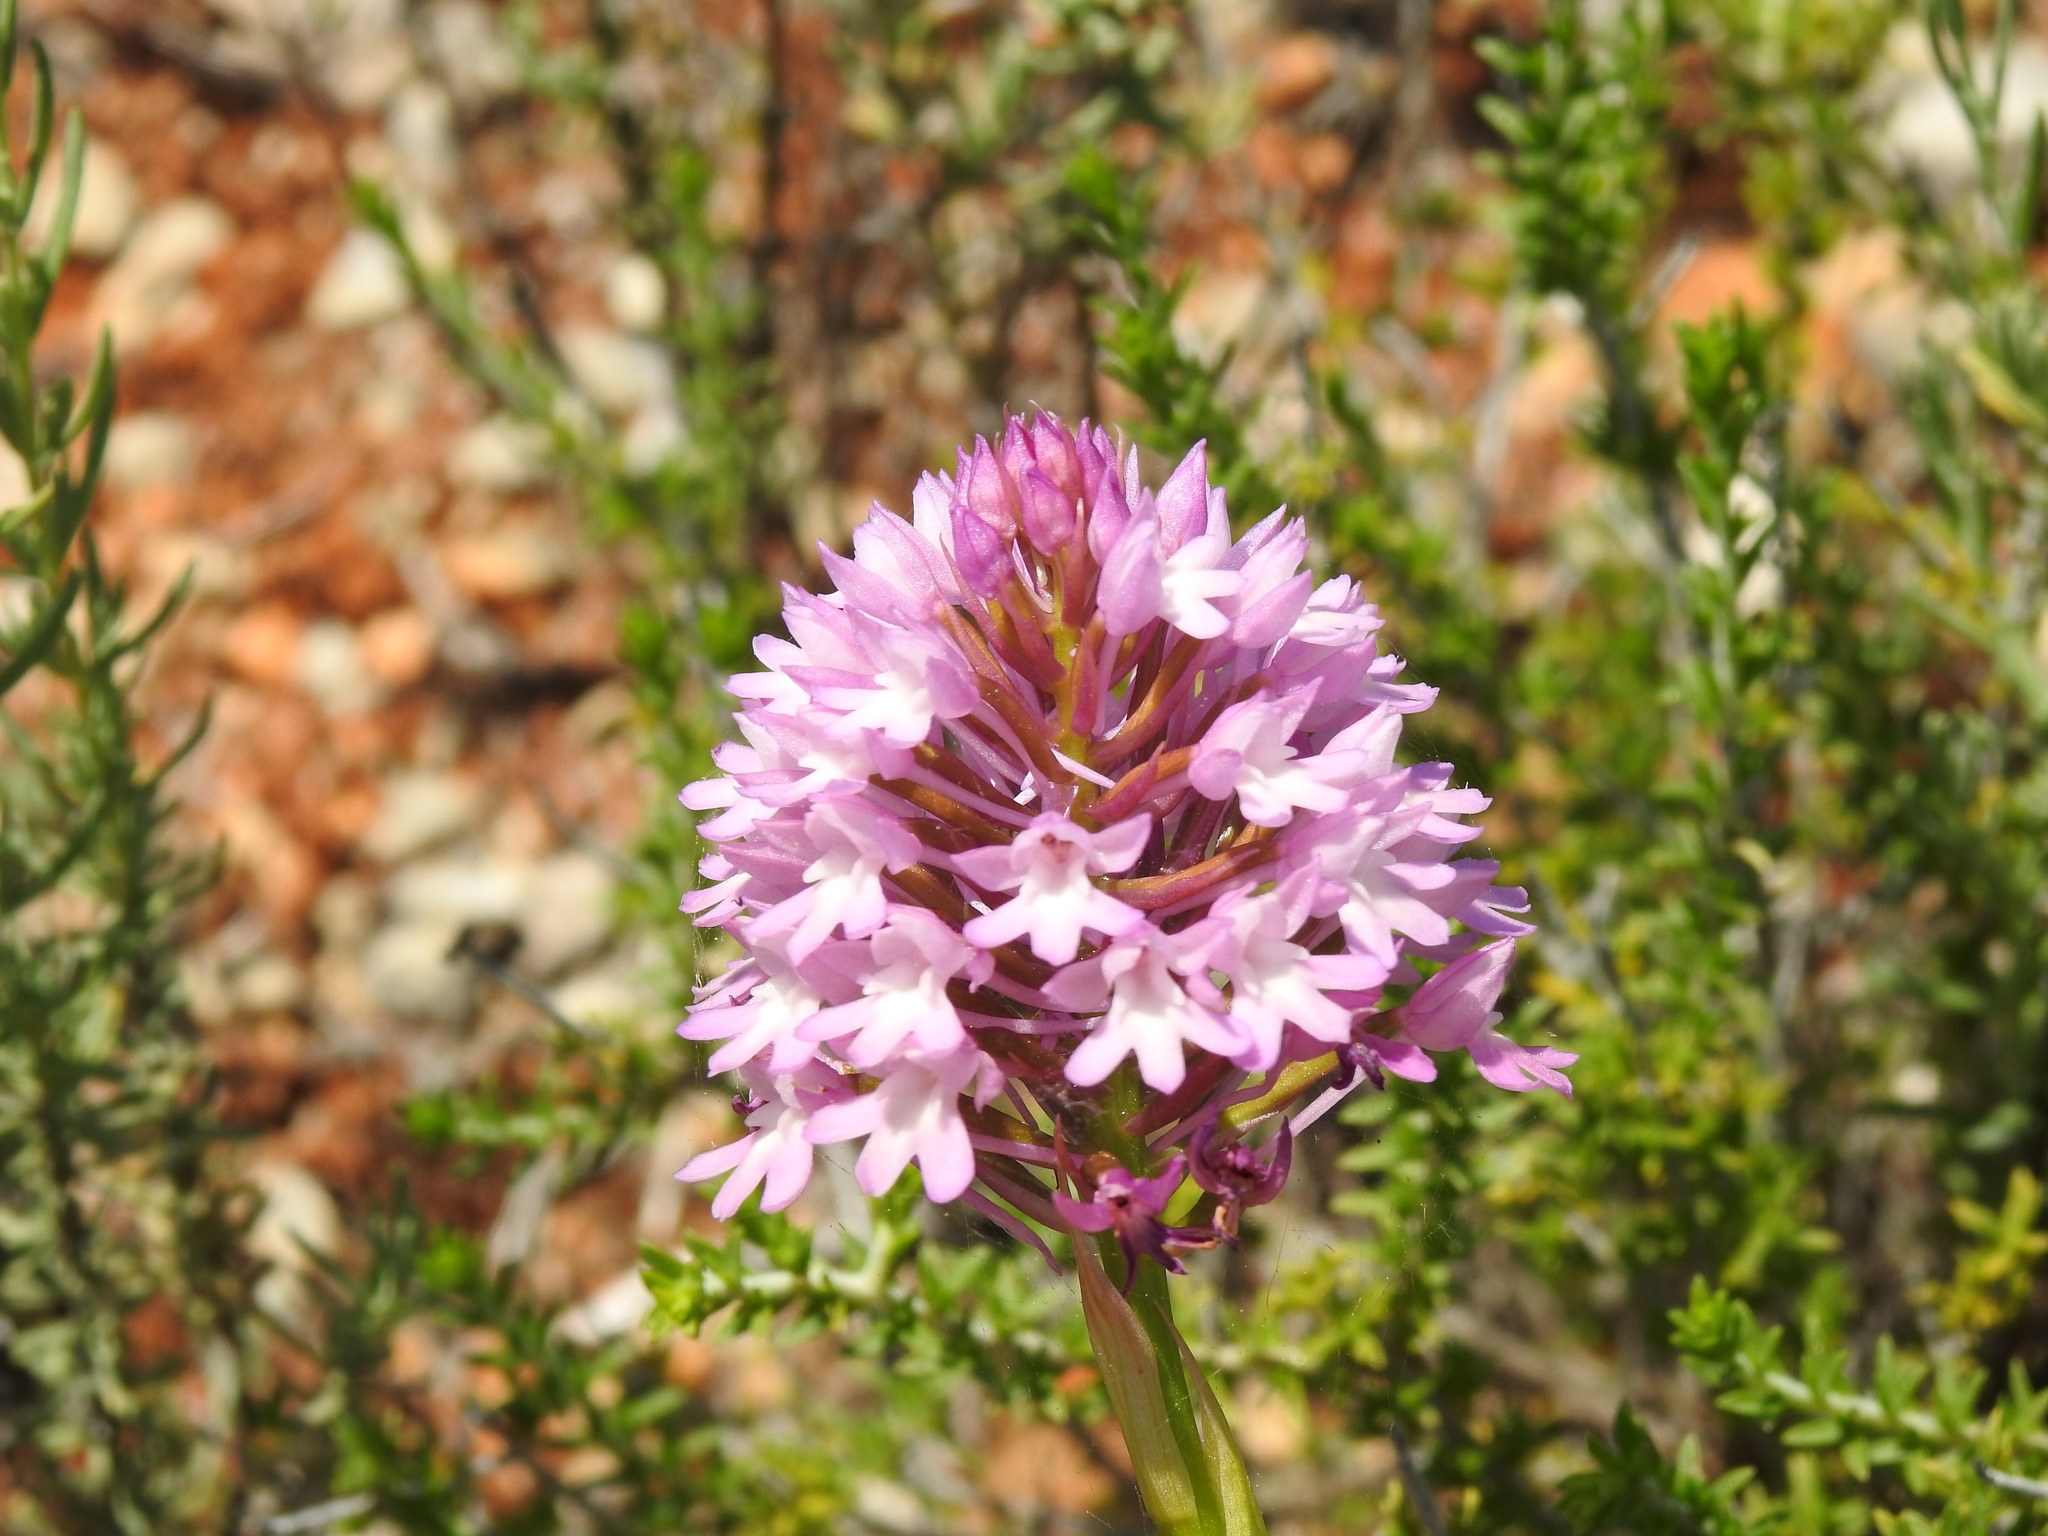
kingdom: Plantae
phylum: Tracheophyta
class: Liliopsida
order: Asparagales
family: Orchidaceae
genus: Anacamptis
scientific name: Anacamptis pyramidalis
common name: Pyramidal orchid
